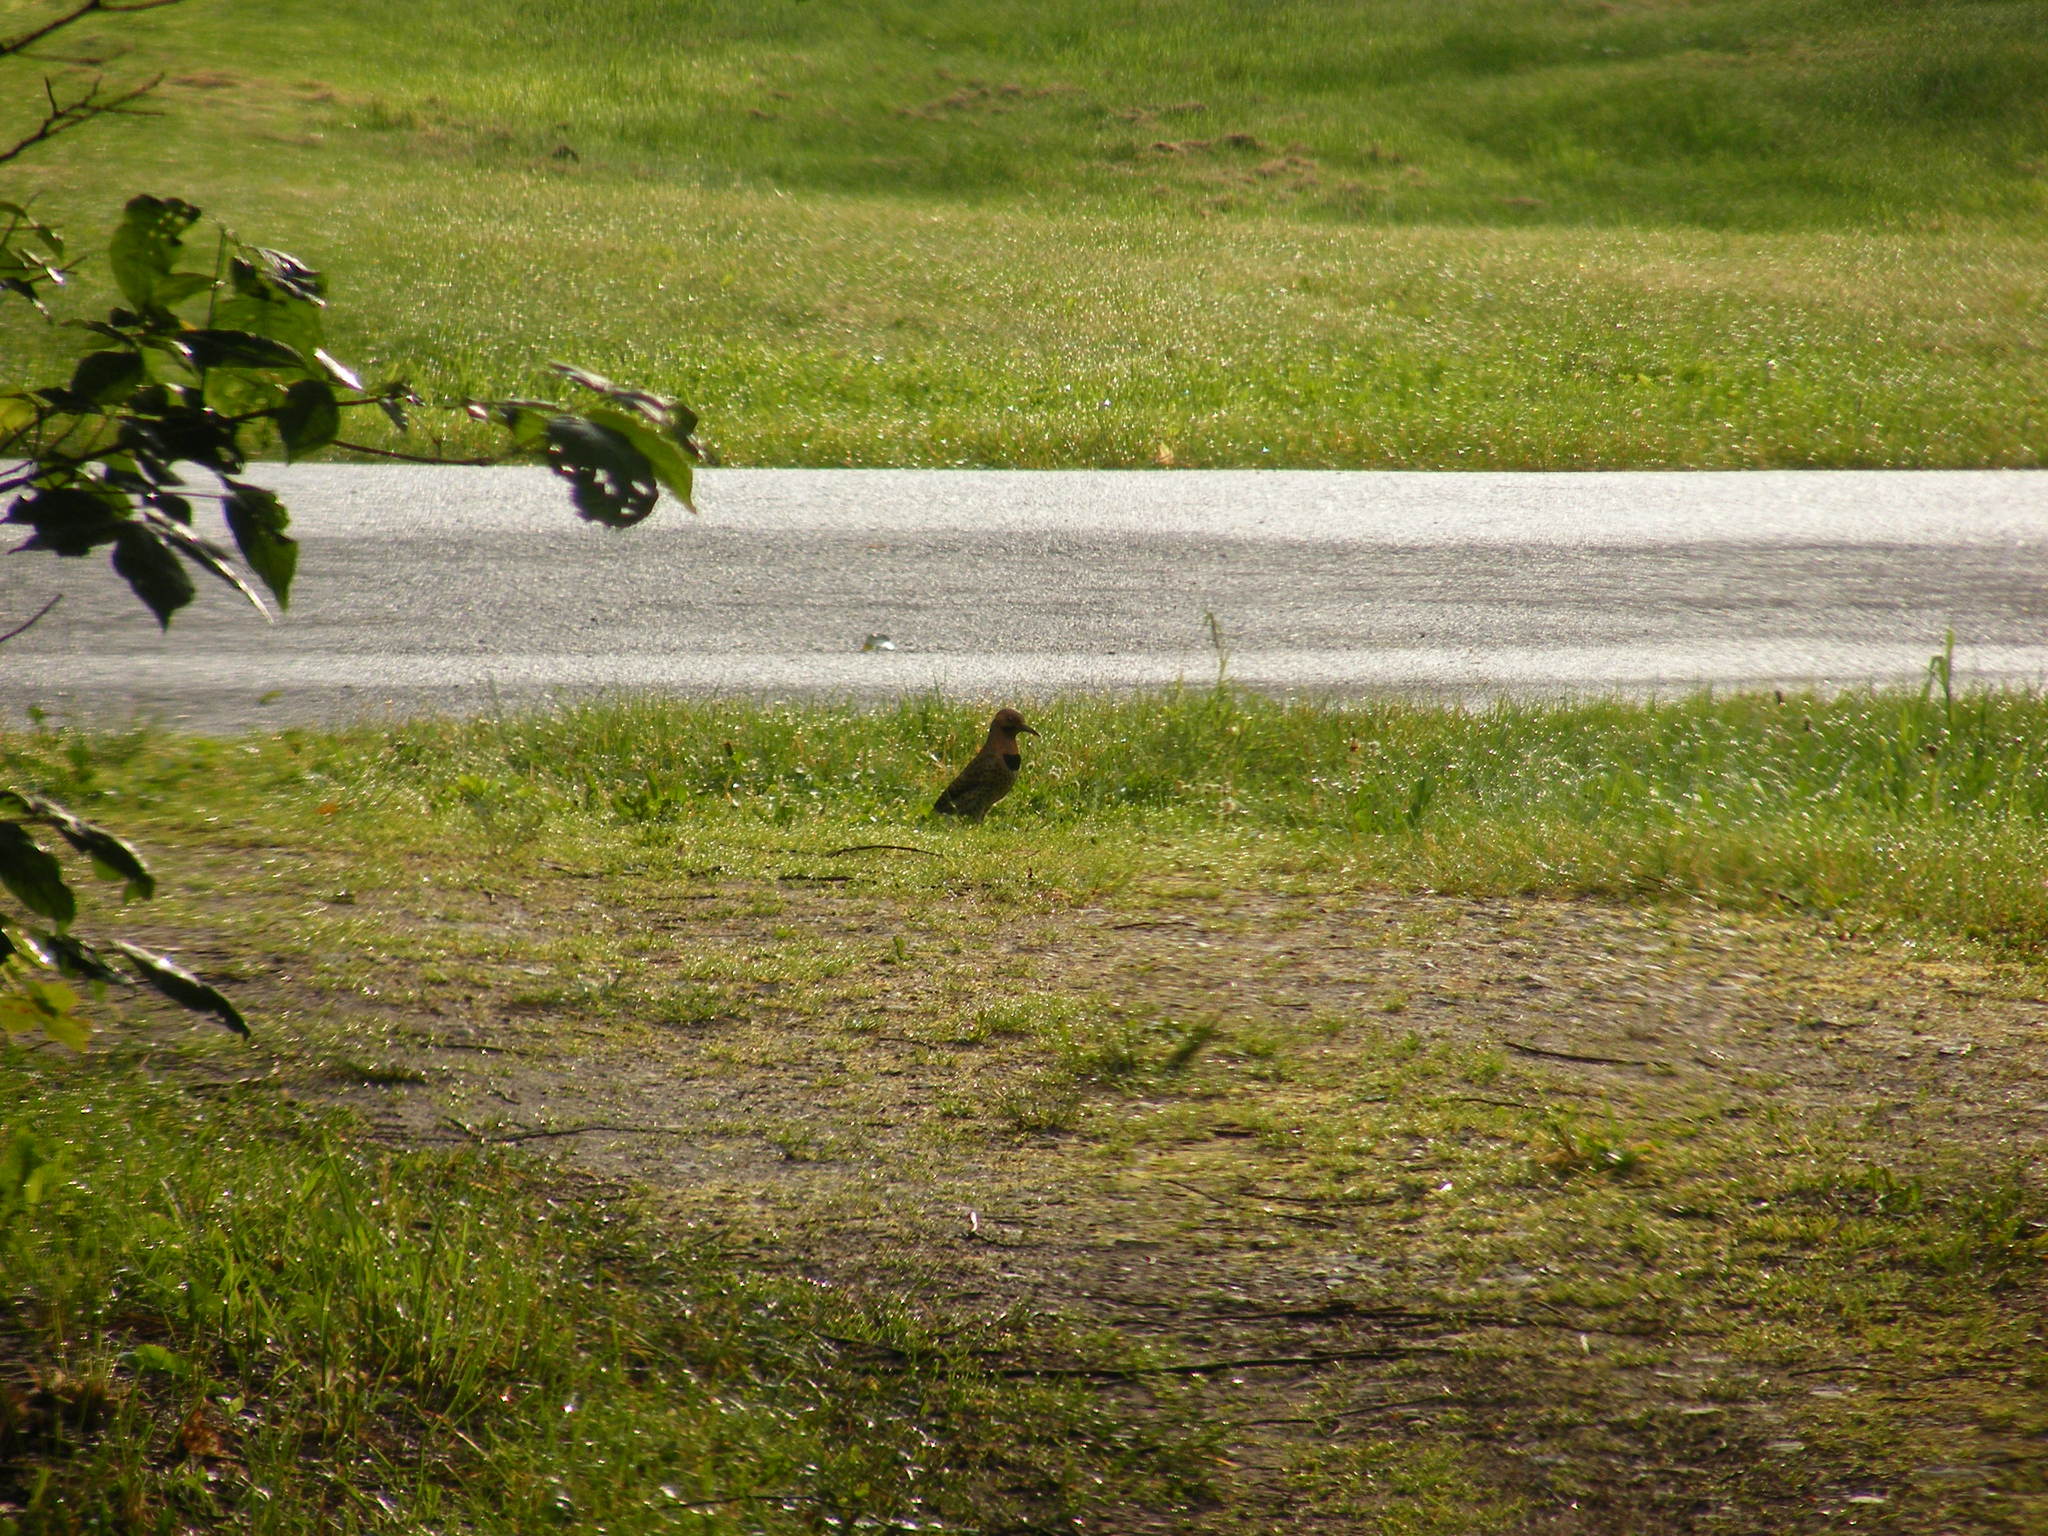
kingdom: Animalia
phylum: Chordata
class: Aves
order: Piciformes
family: Picidae
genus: Colaptes
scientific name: Colaptes auratus
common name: Northern flicker
